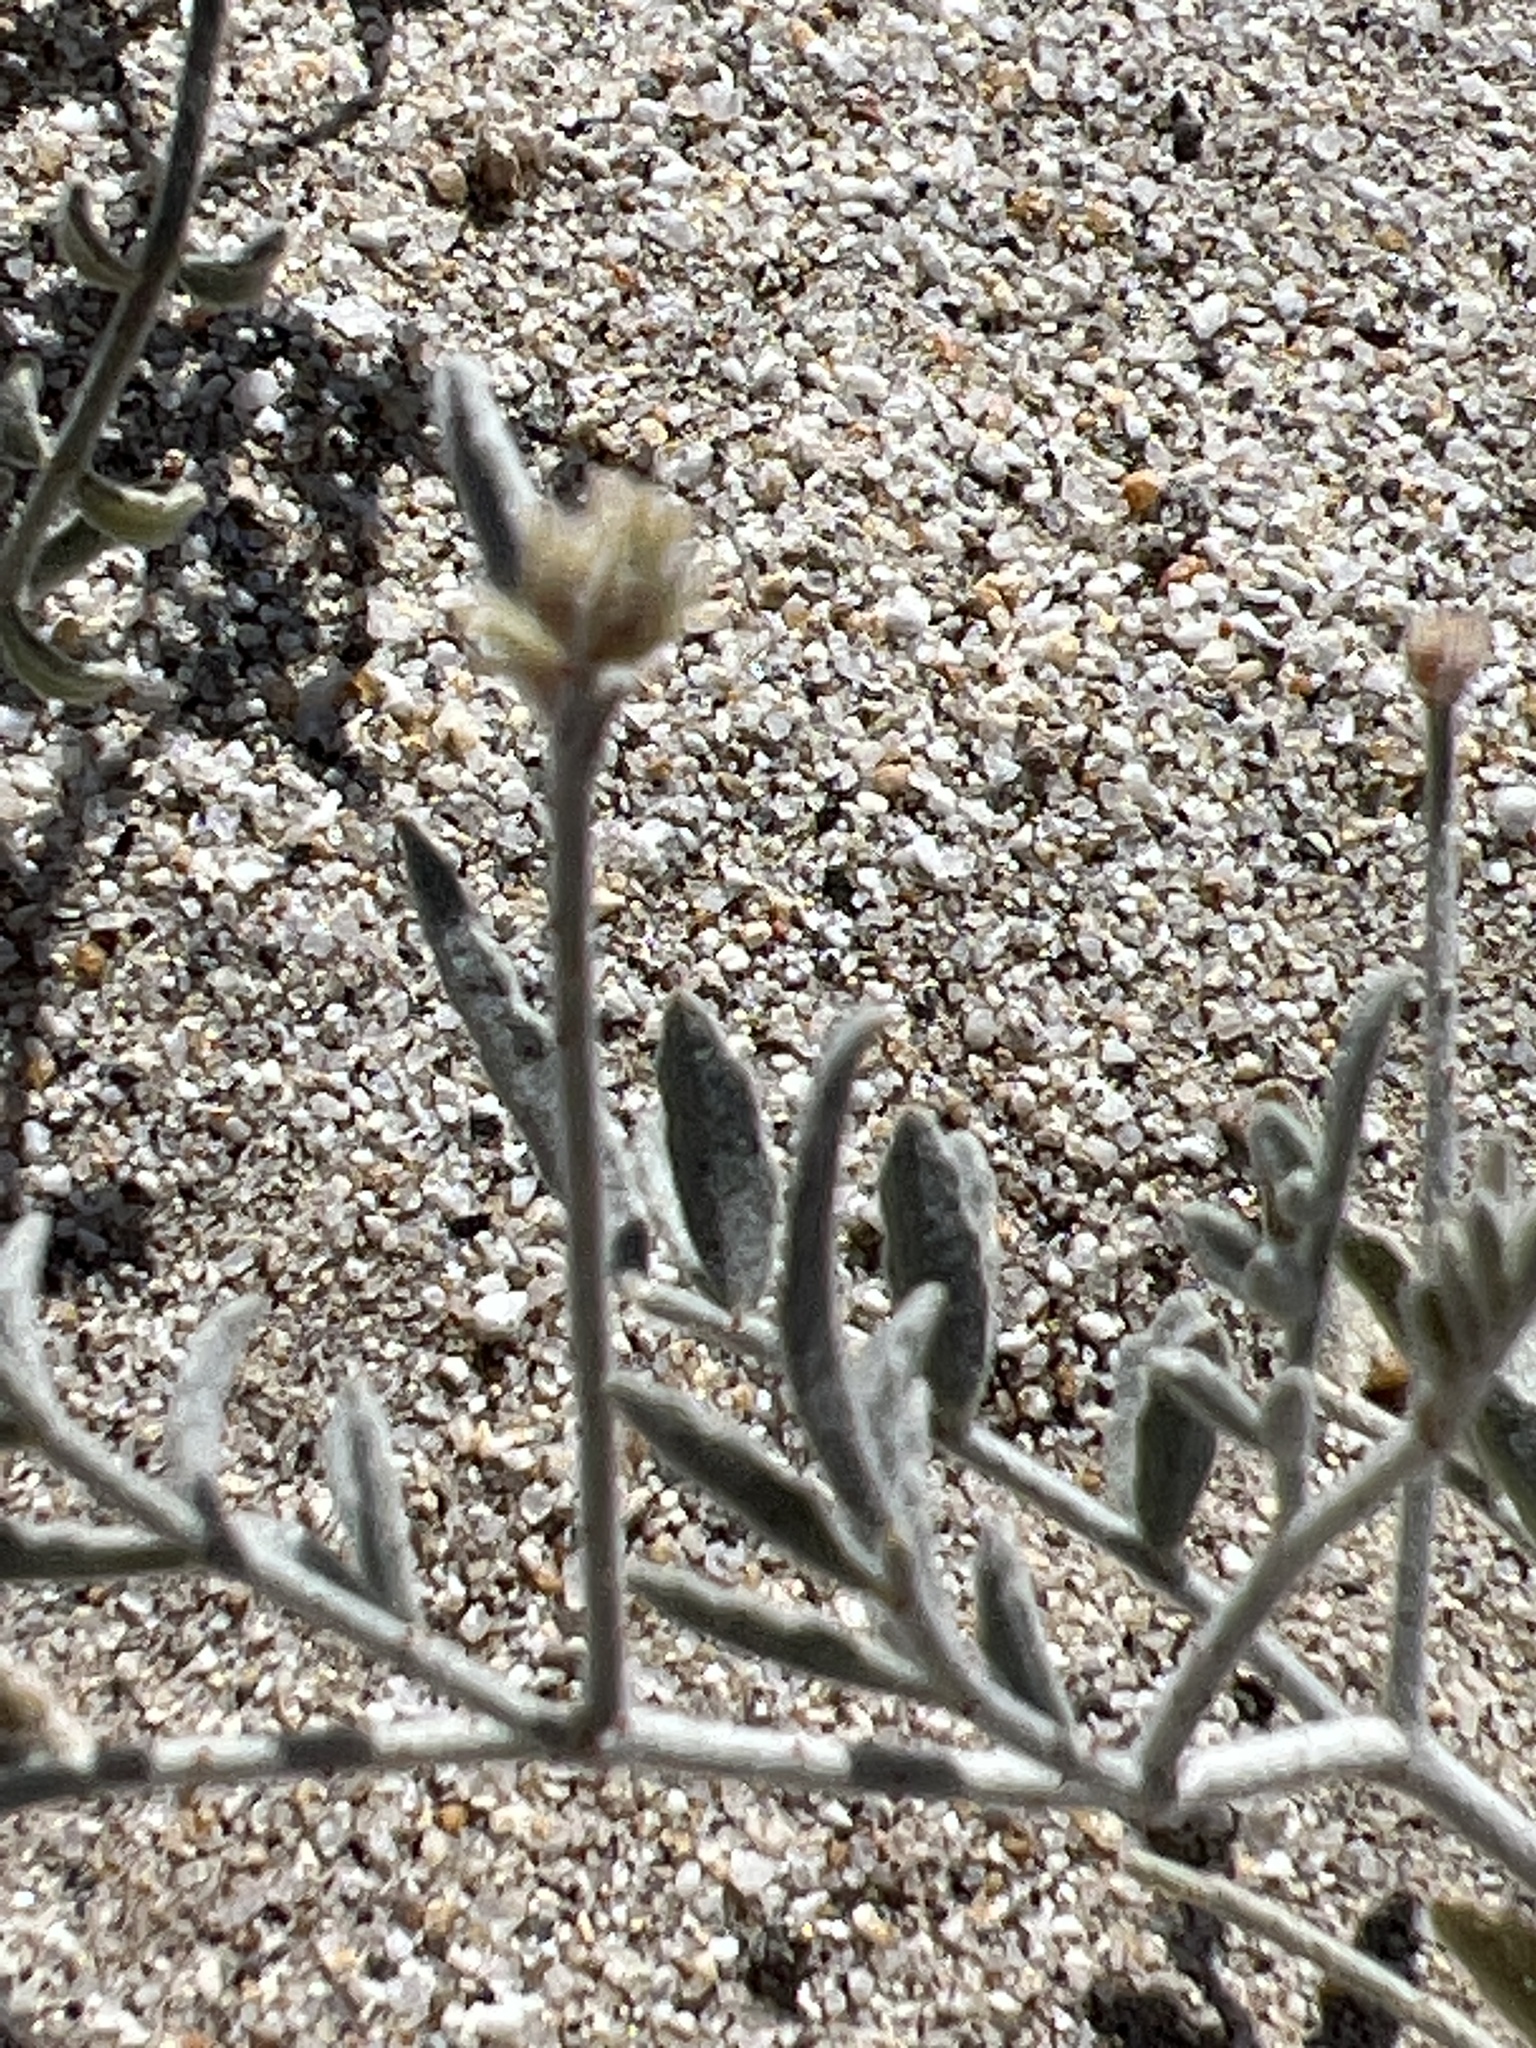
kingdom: Plantae
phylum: Tracheophyta
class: Magnoliopsida
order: Fabales
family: Fabaceae
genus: Psorothamnus
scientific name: Psorothamnus emoryi
